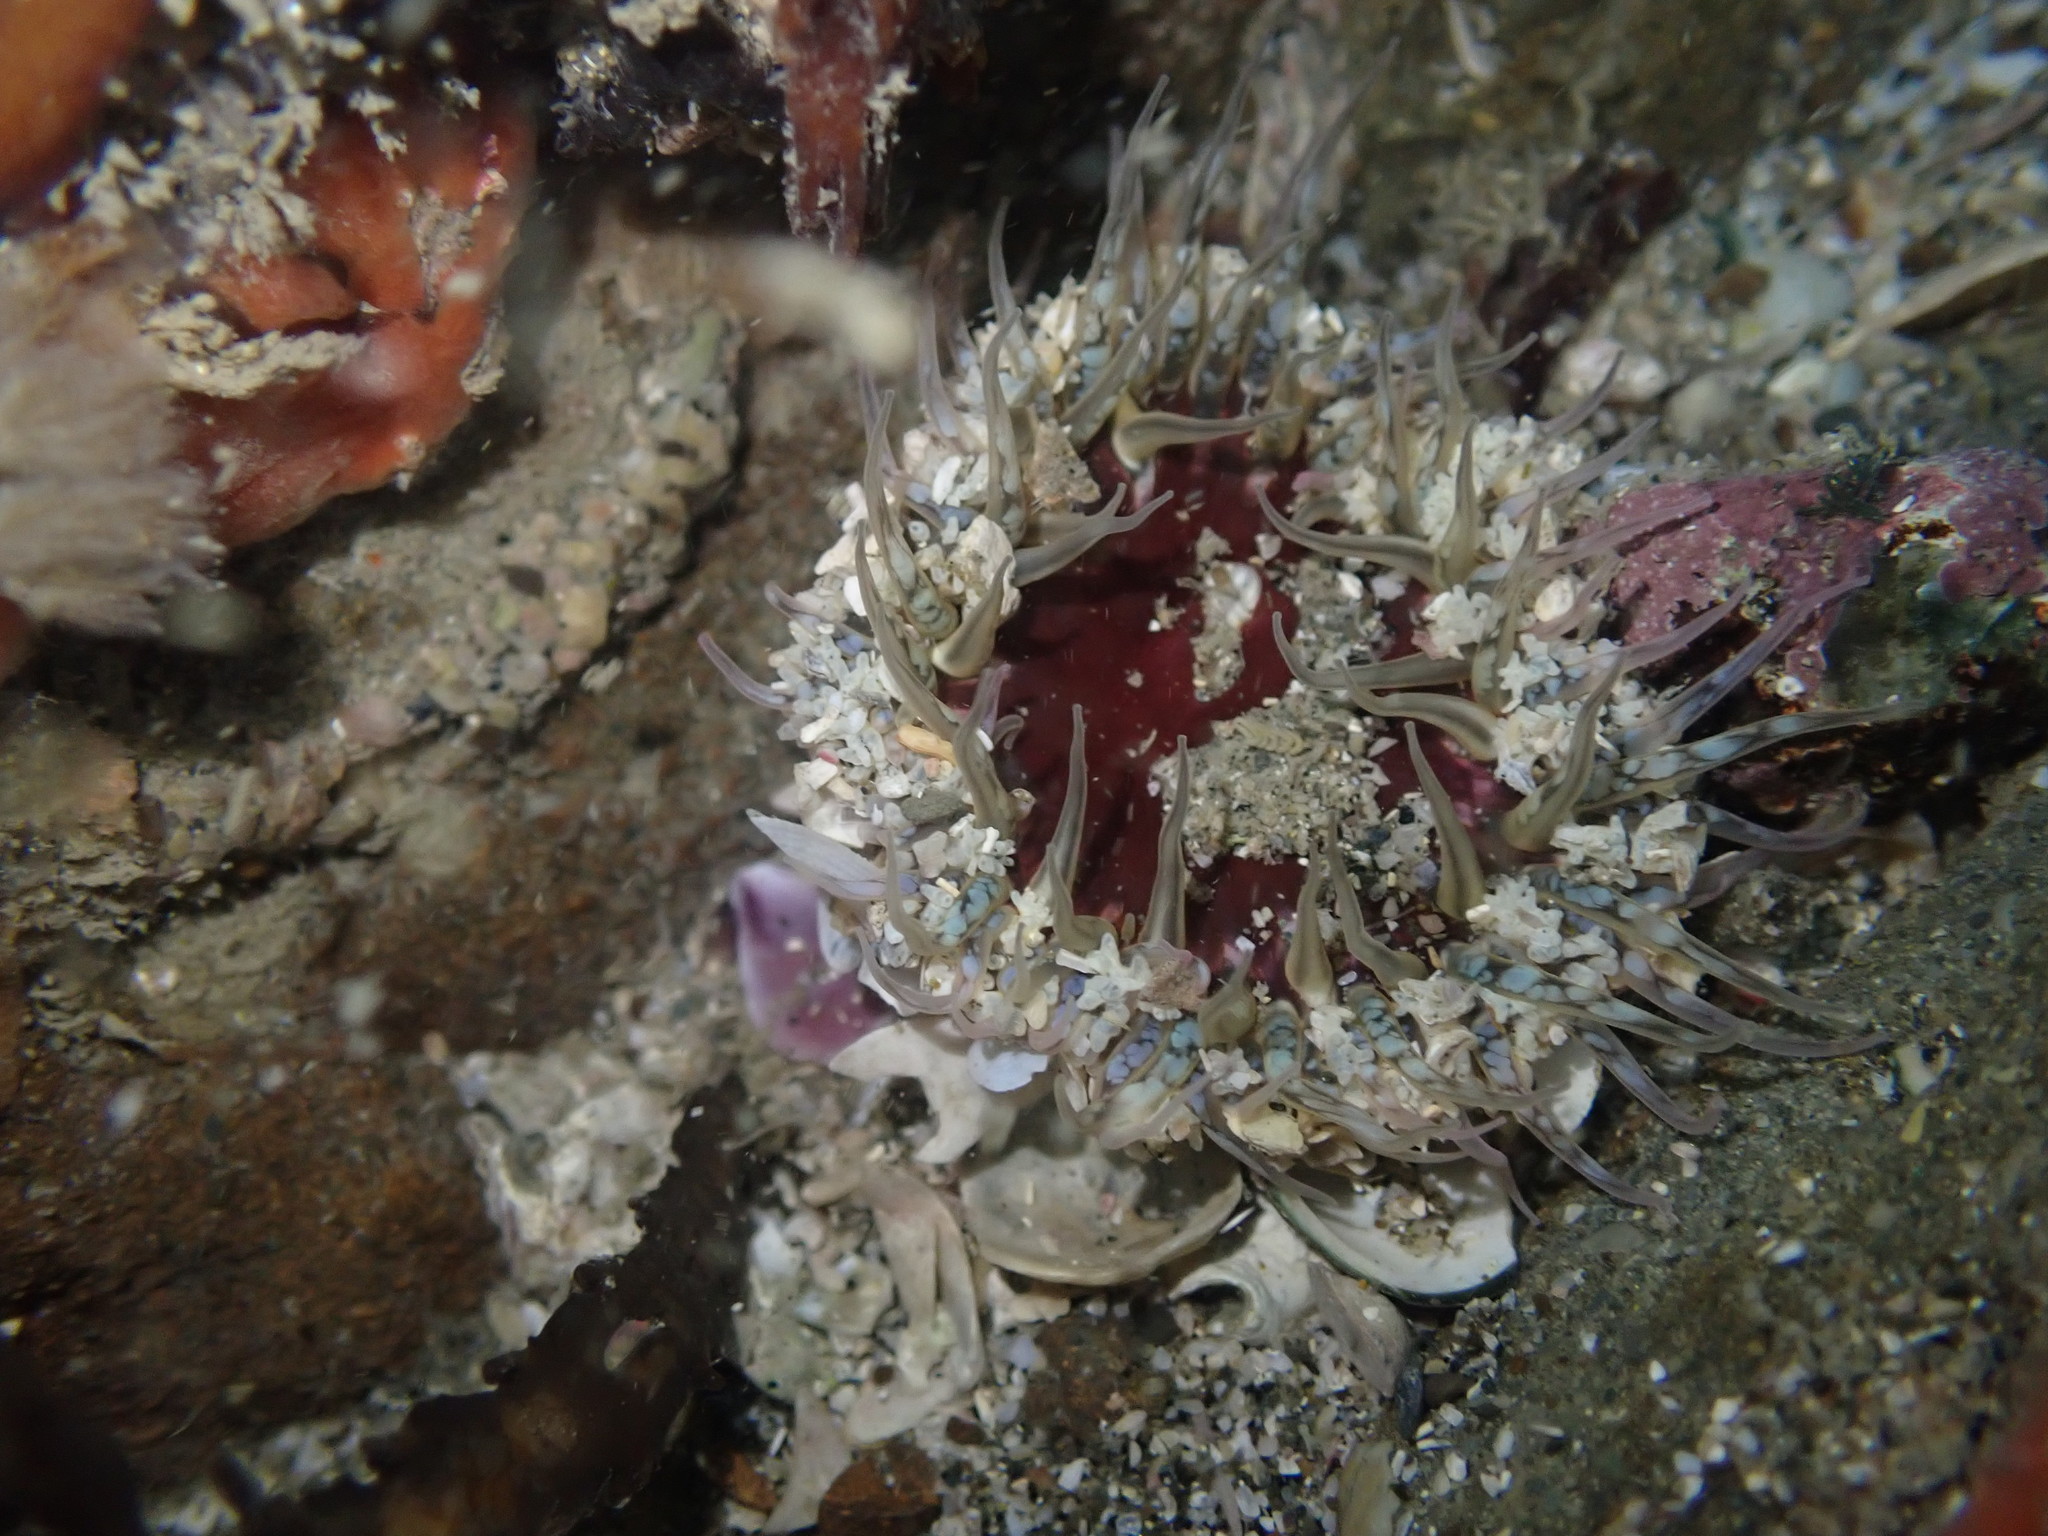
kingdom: Animalia
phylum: Cnidaria
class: Anthozoa
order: Actiniaria
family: Actiniidae
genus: Oulactis
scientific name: Oulactis muscosa
